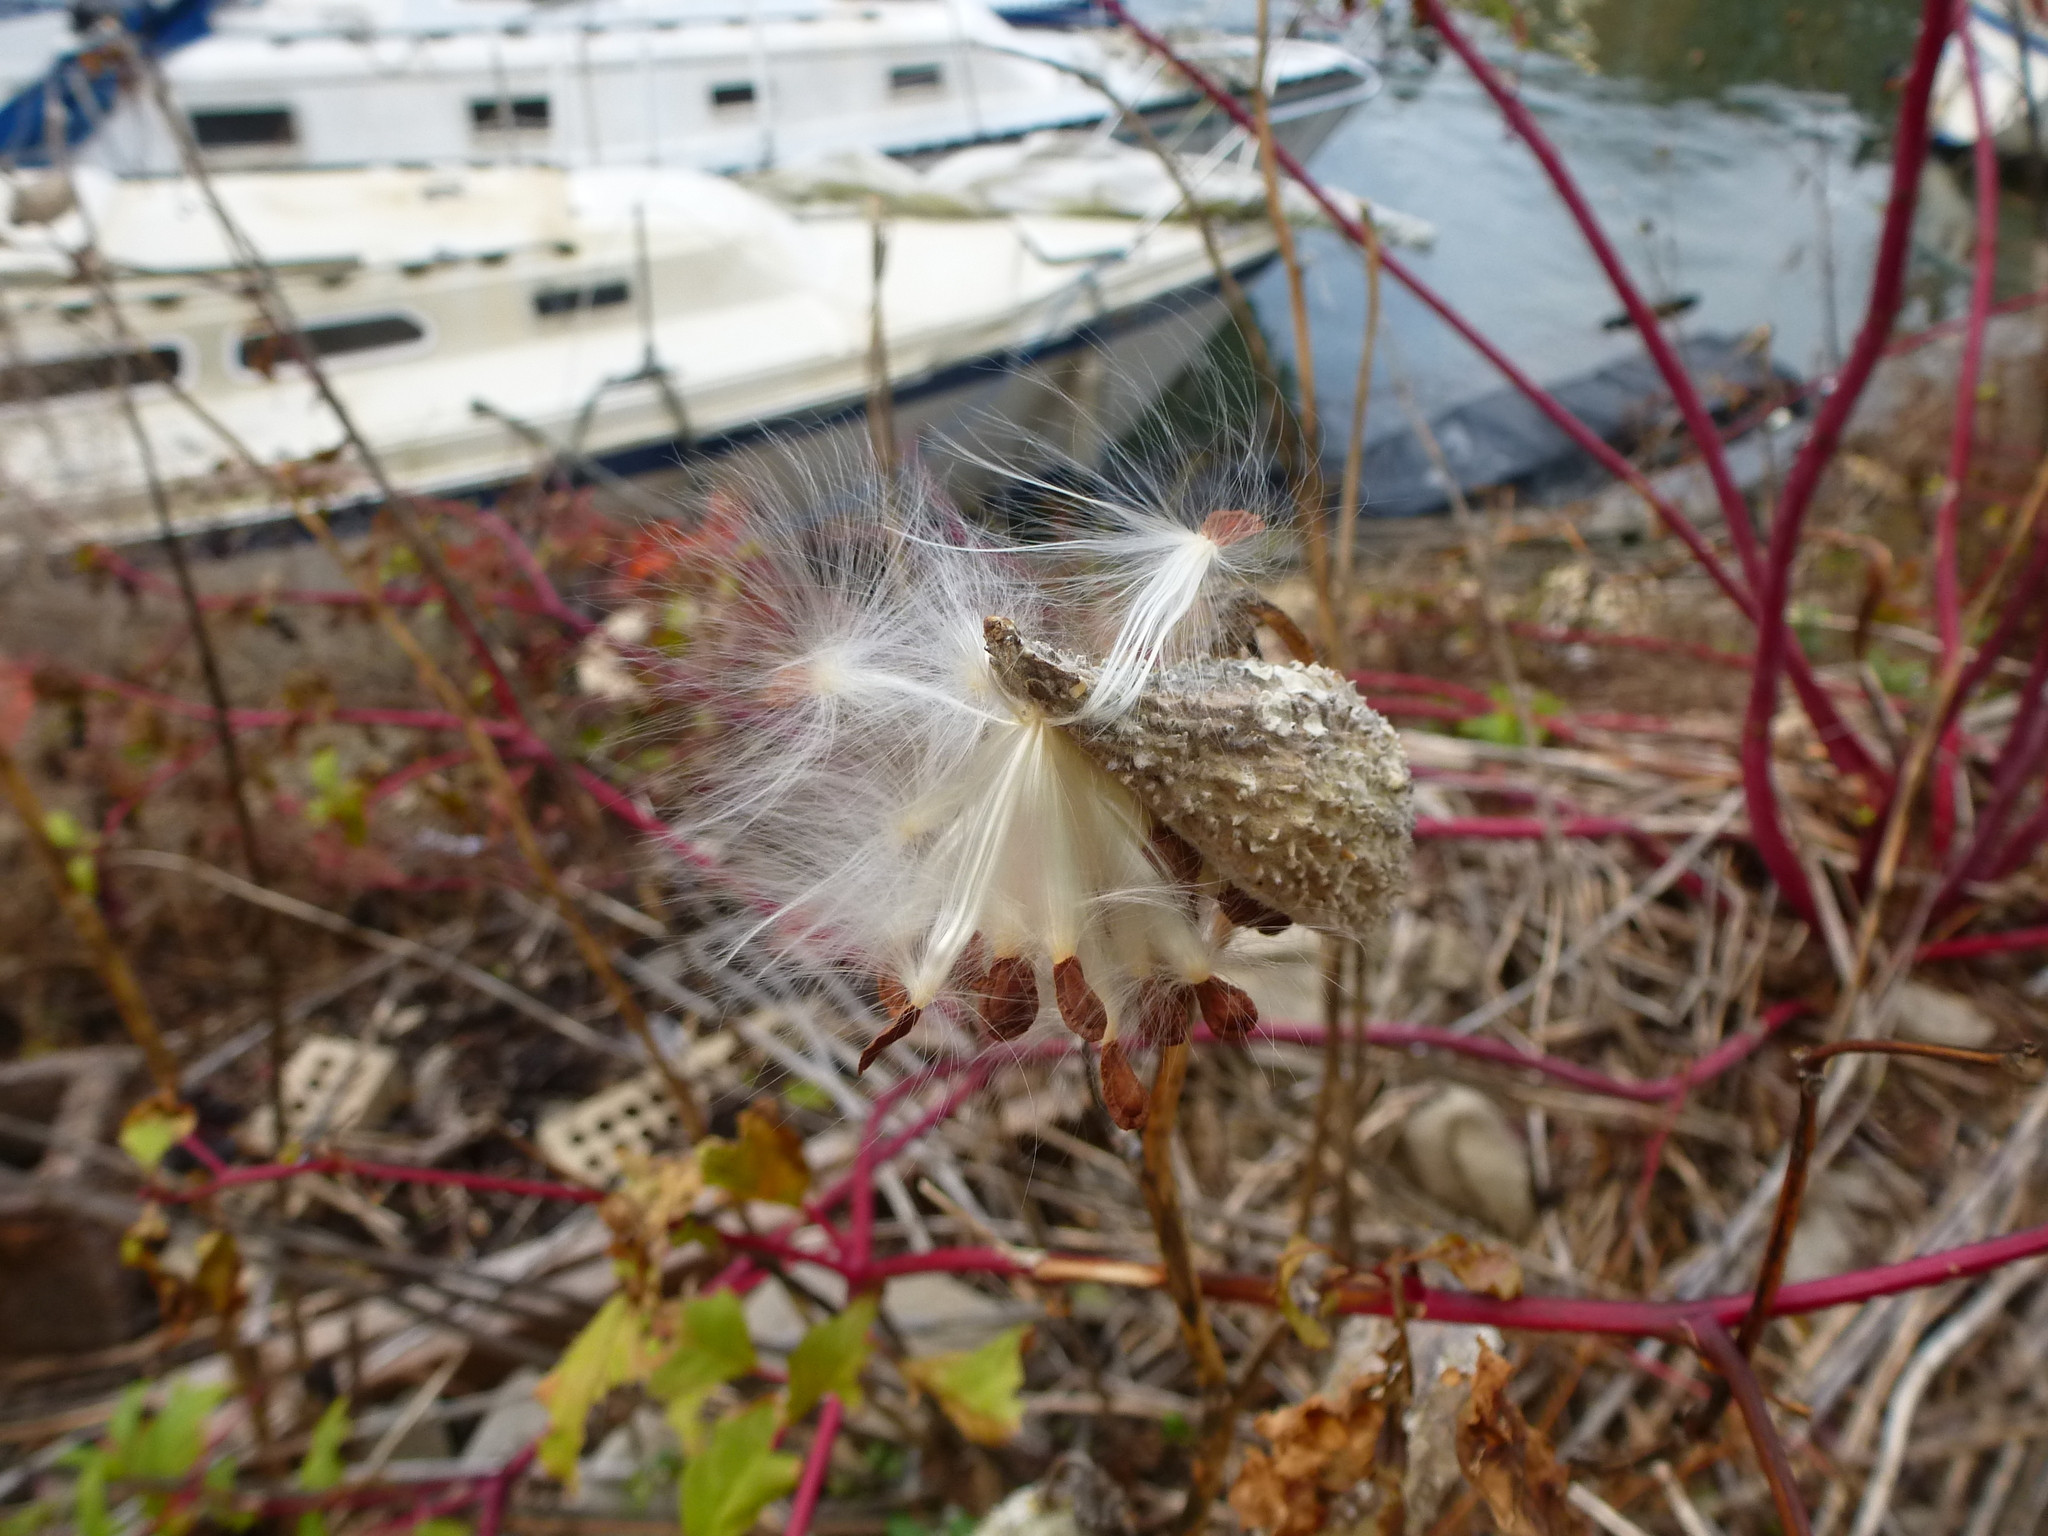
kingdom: Plantae
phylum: Tracheophyta
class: Magnoliopsida
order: Gentianales
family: Apocynaceae
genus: Asclepias
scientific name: Asclepias syriaca
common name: Common milkweed
